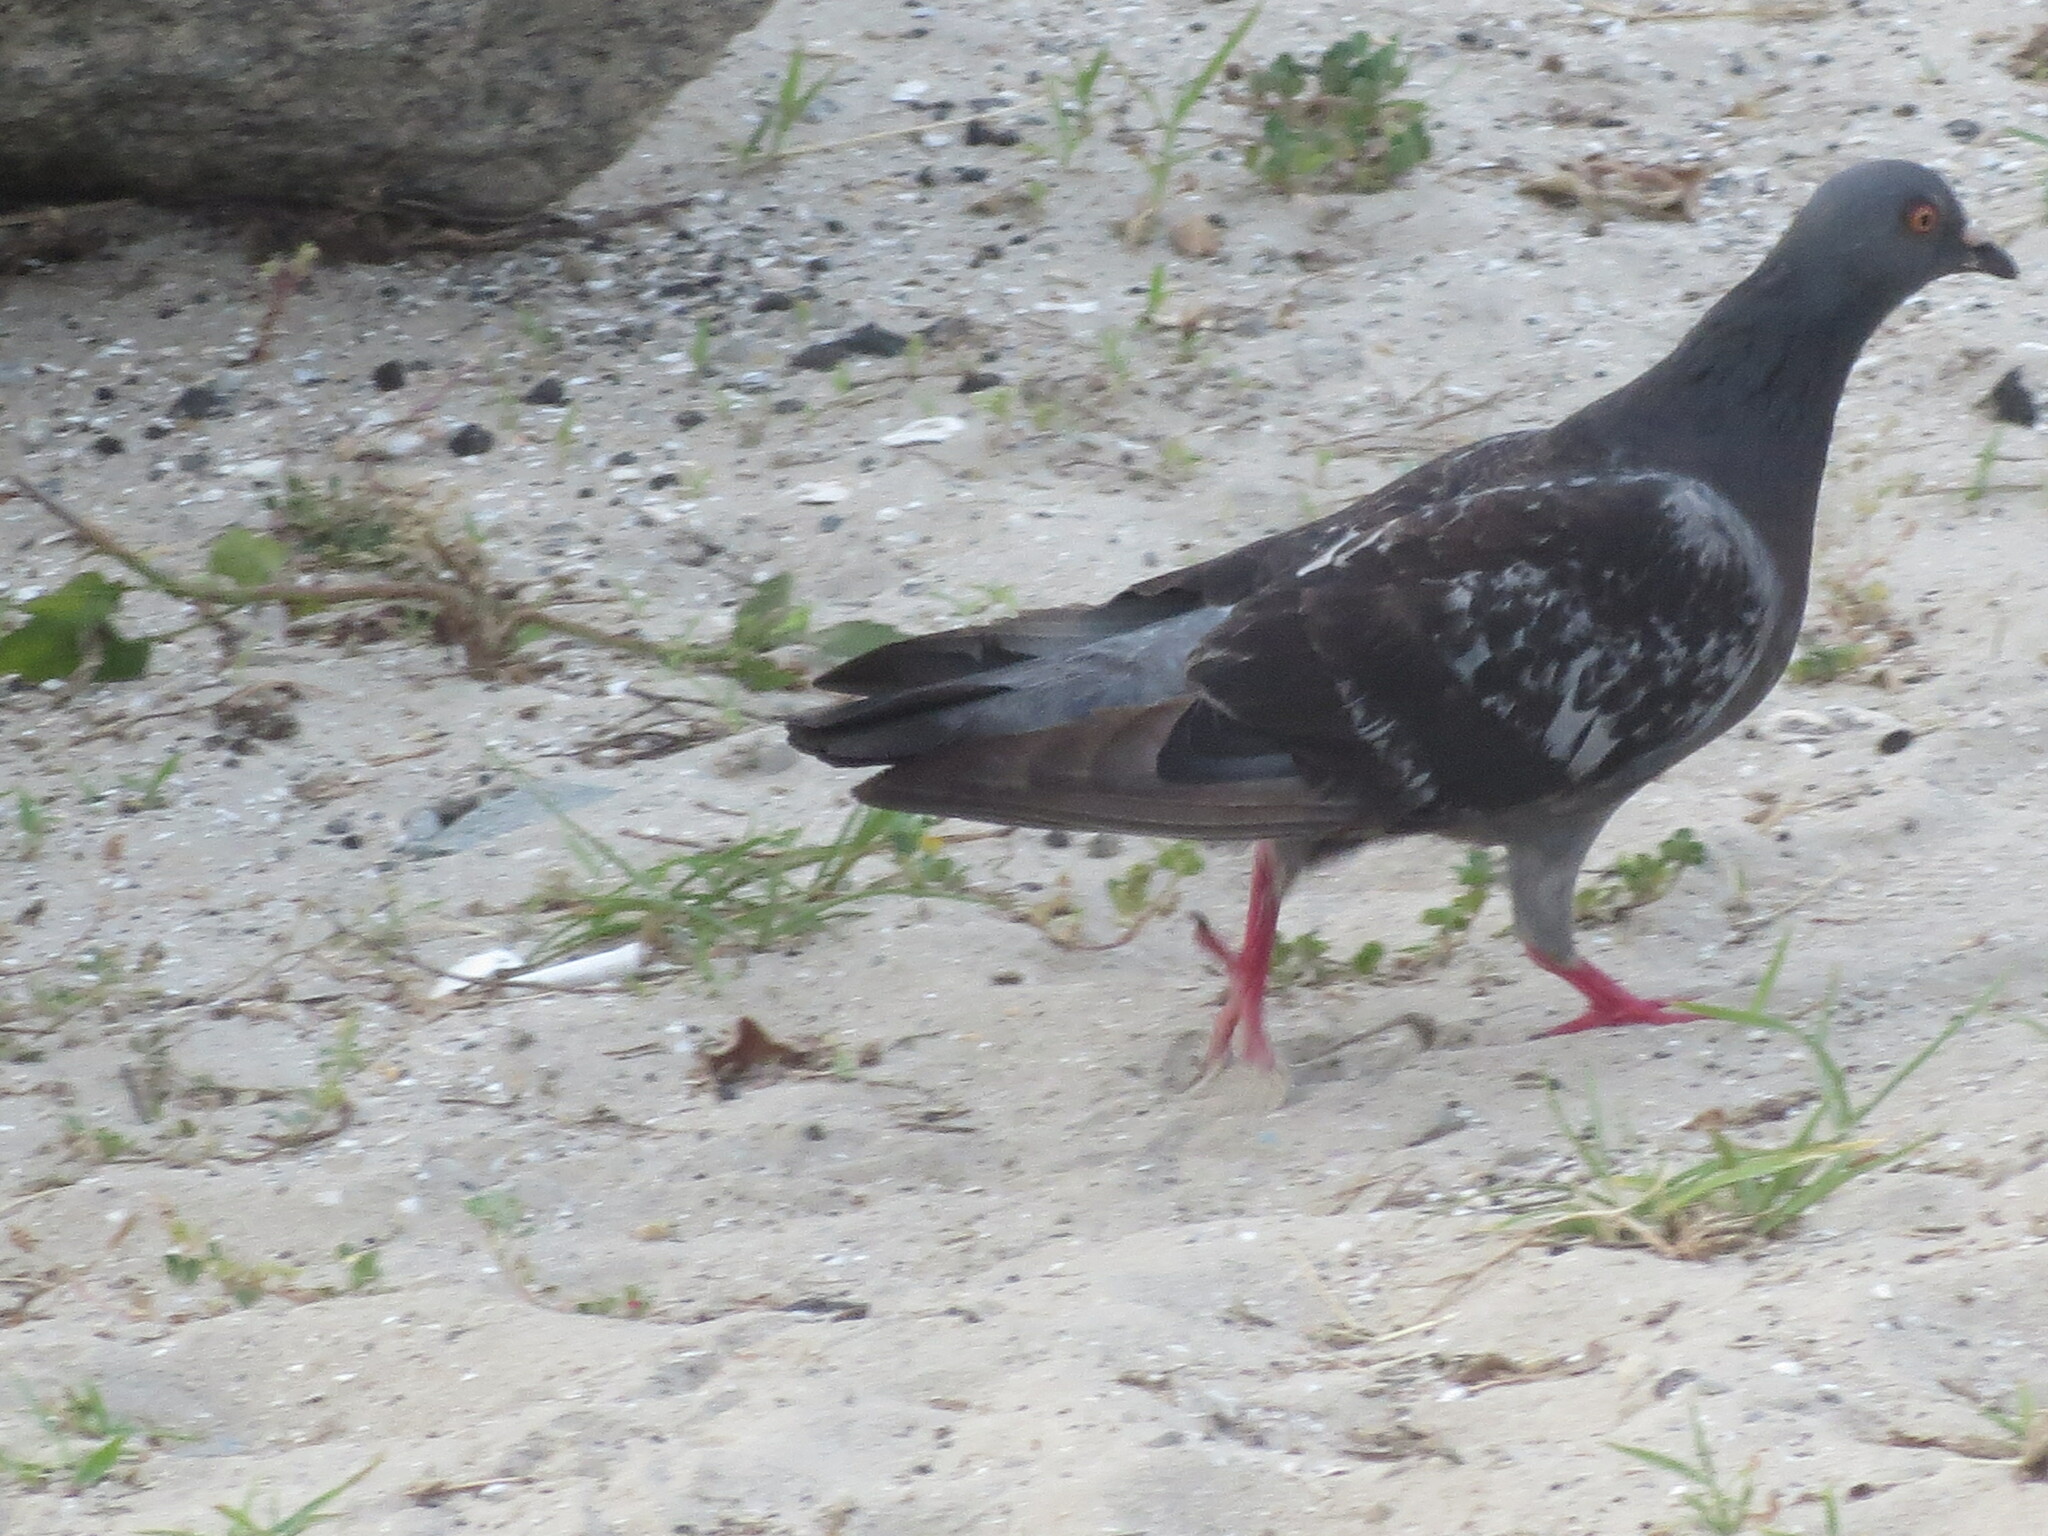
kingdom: Animalia
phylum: Chordata
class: Aves
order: Columbiformes
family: Columbidae
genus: Columba
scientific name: Columba livia
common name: Rock pigeon
